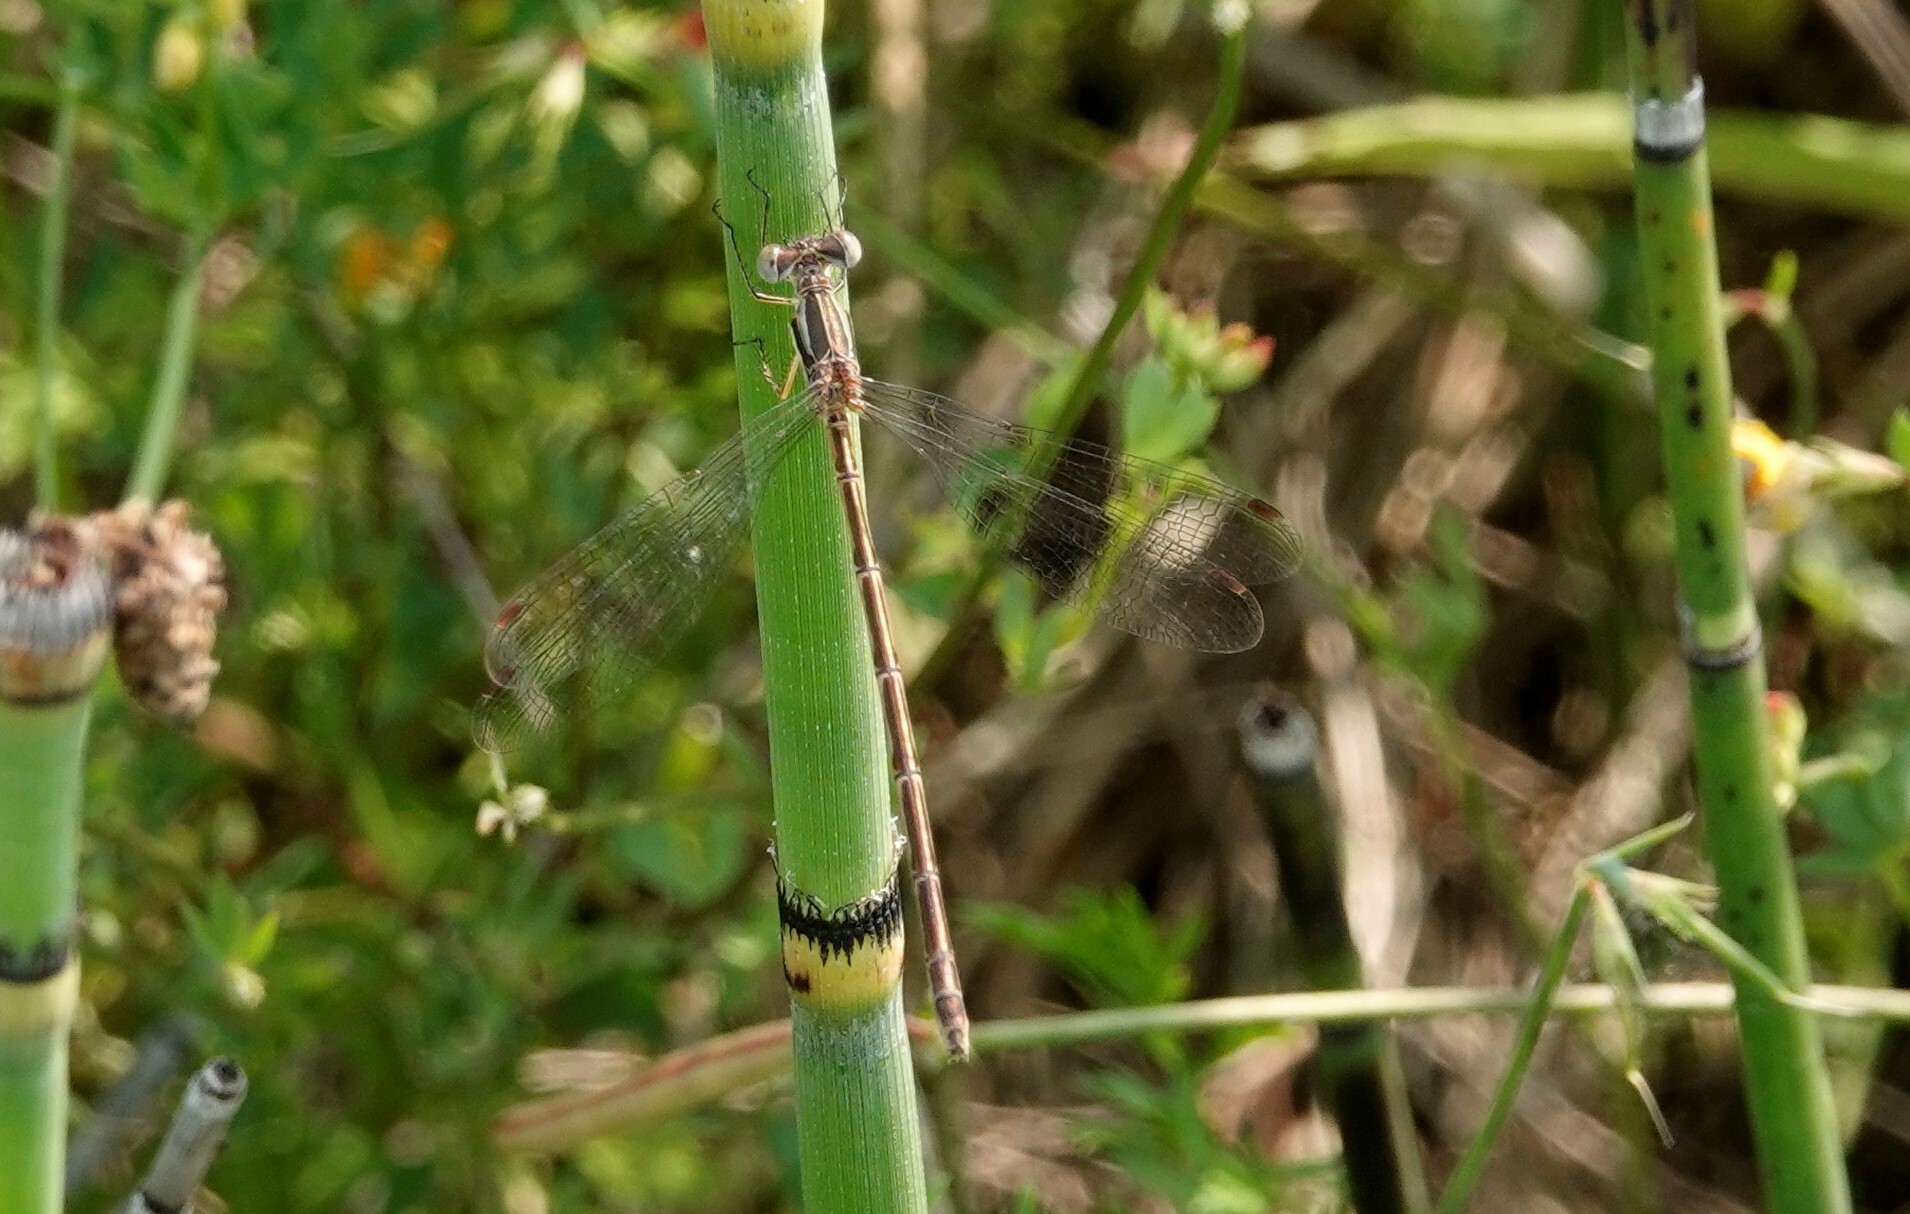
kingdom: Animalia
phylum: Arthropoda
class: Insecta
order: Odonata
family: Lestidae
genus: Lestes
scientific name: Lestes rectangularis
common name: Slender spreadwing
